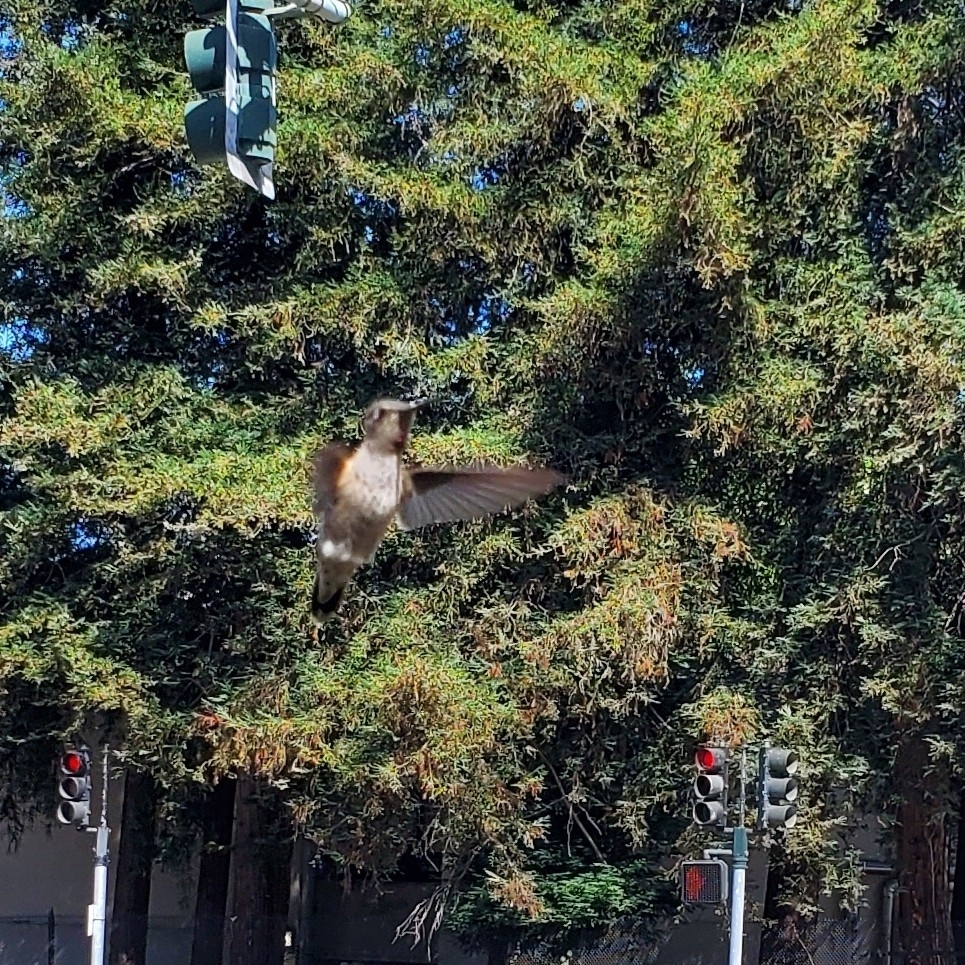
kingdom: Animalia
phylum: Chordata
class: Aves
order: Apodiformes
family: Trochilidae
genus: Calypte
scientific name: Calypte anna
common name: Anna's hummingbird
